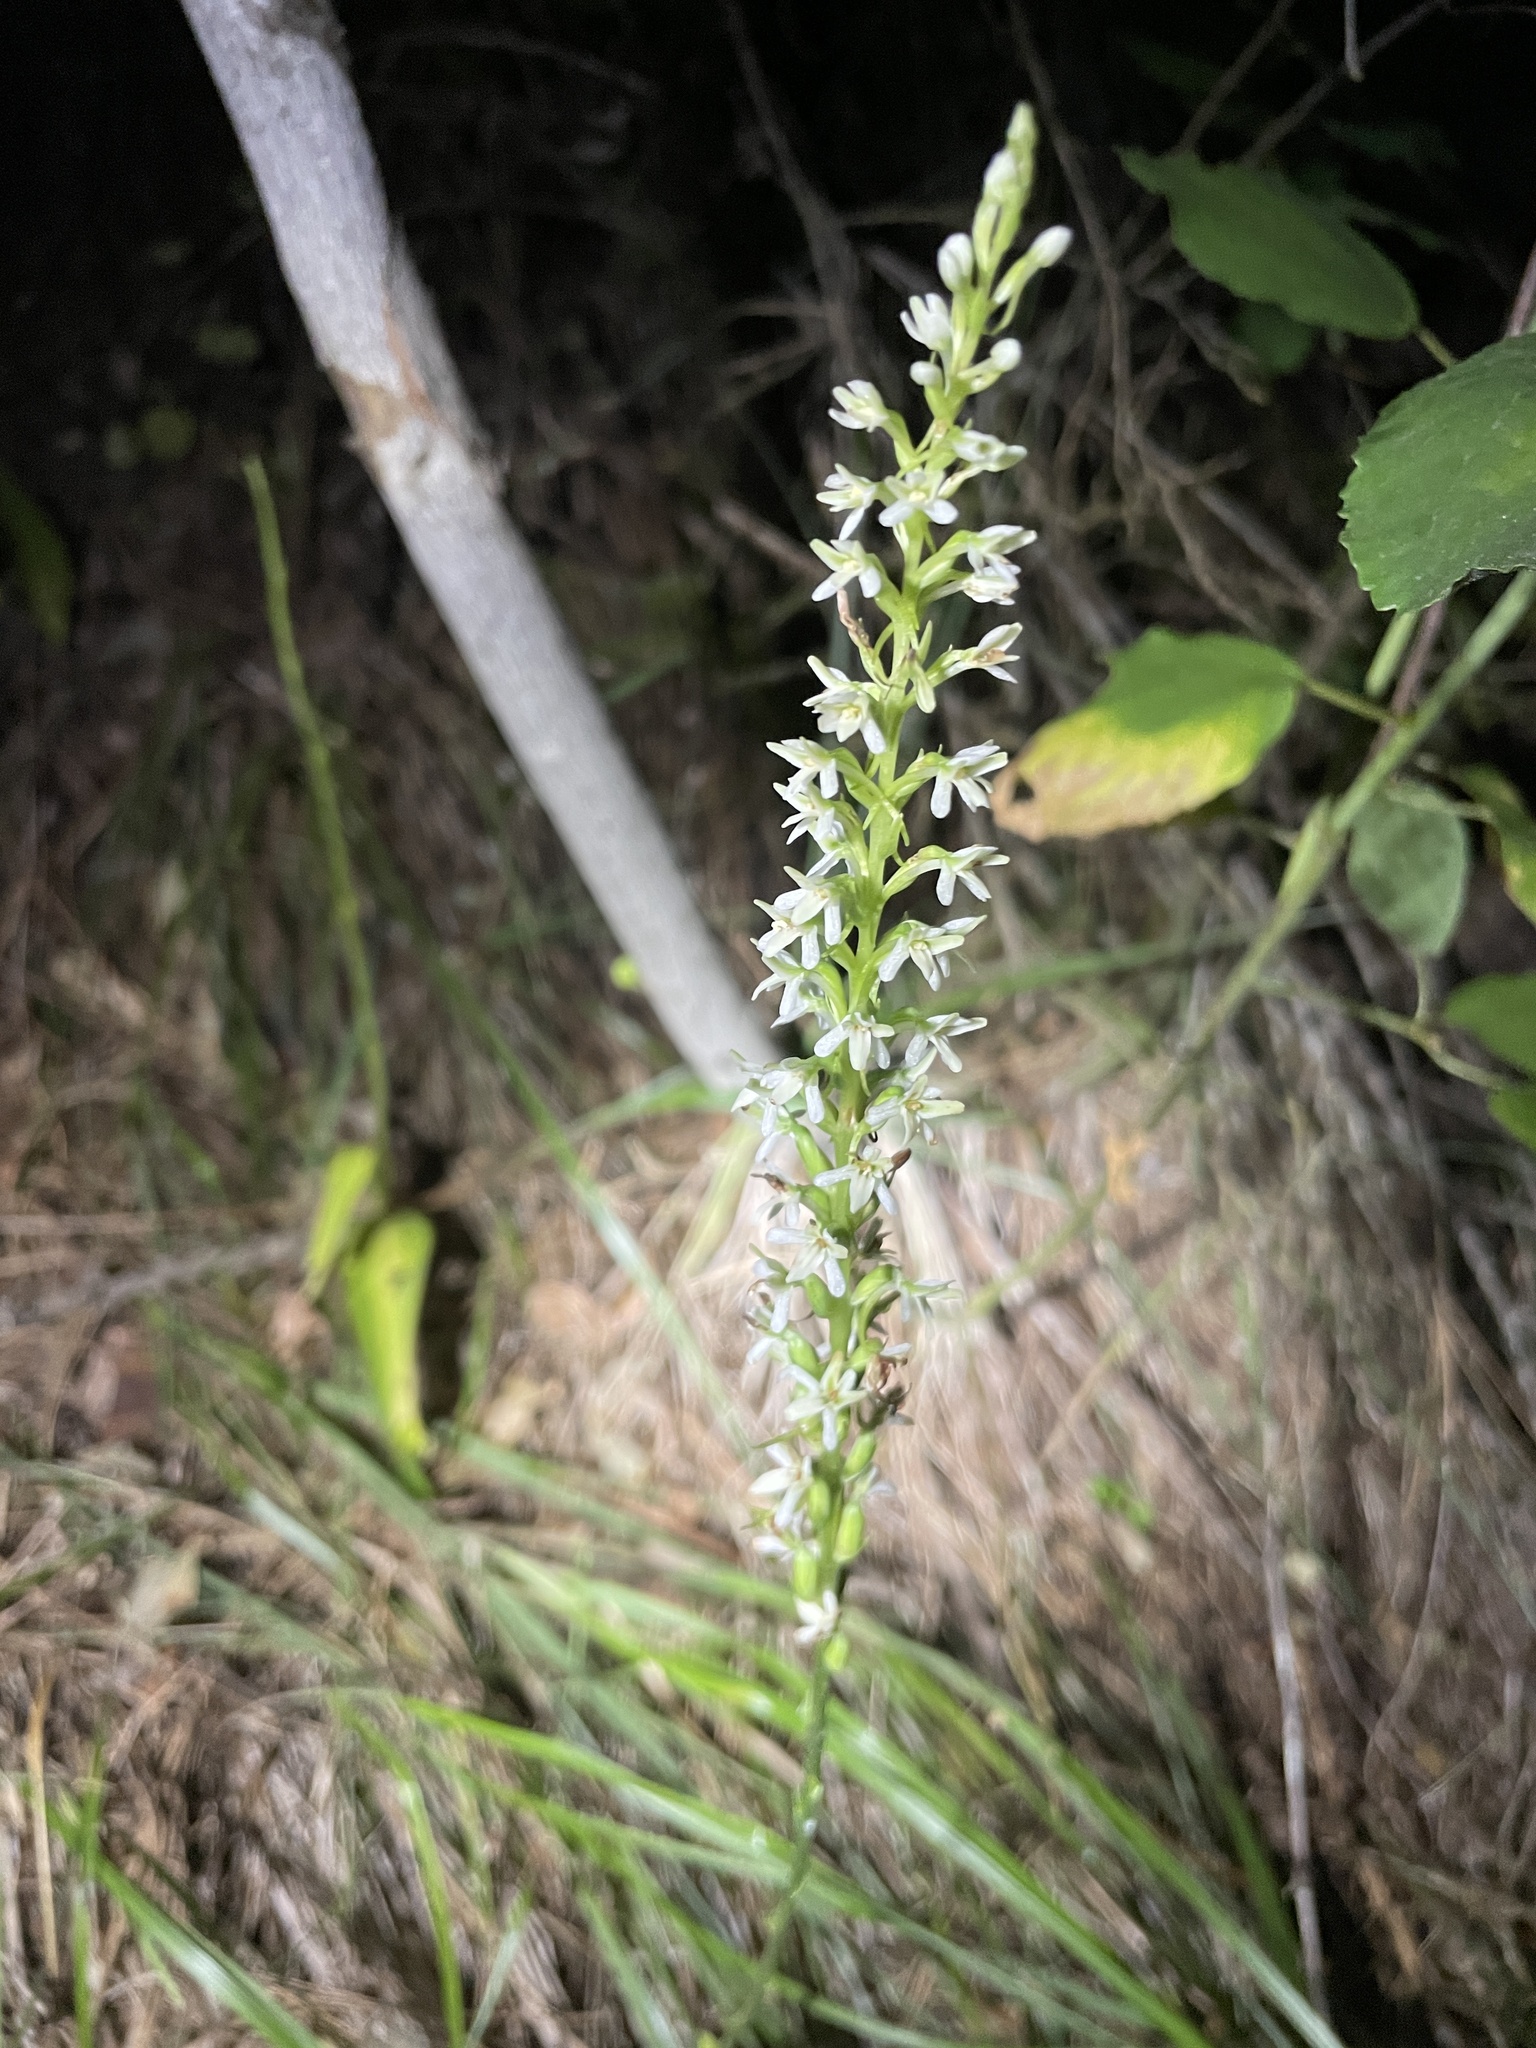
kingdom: Plantae
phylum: Tracheophyta
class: Liliopsida
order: Asparagales
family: Orchidaceae
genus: Platanthera
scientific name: Platanthera elegans
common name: Coast piperia
